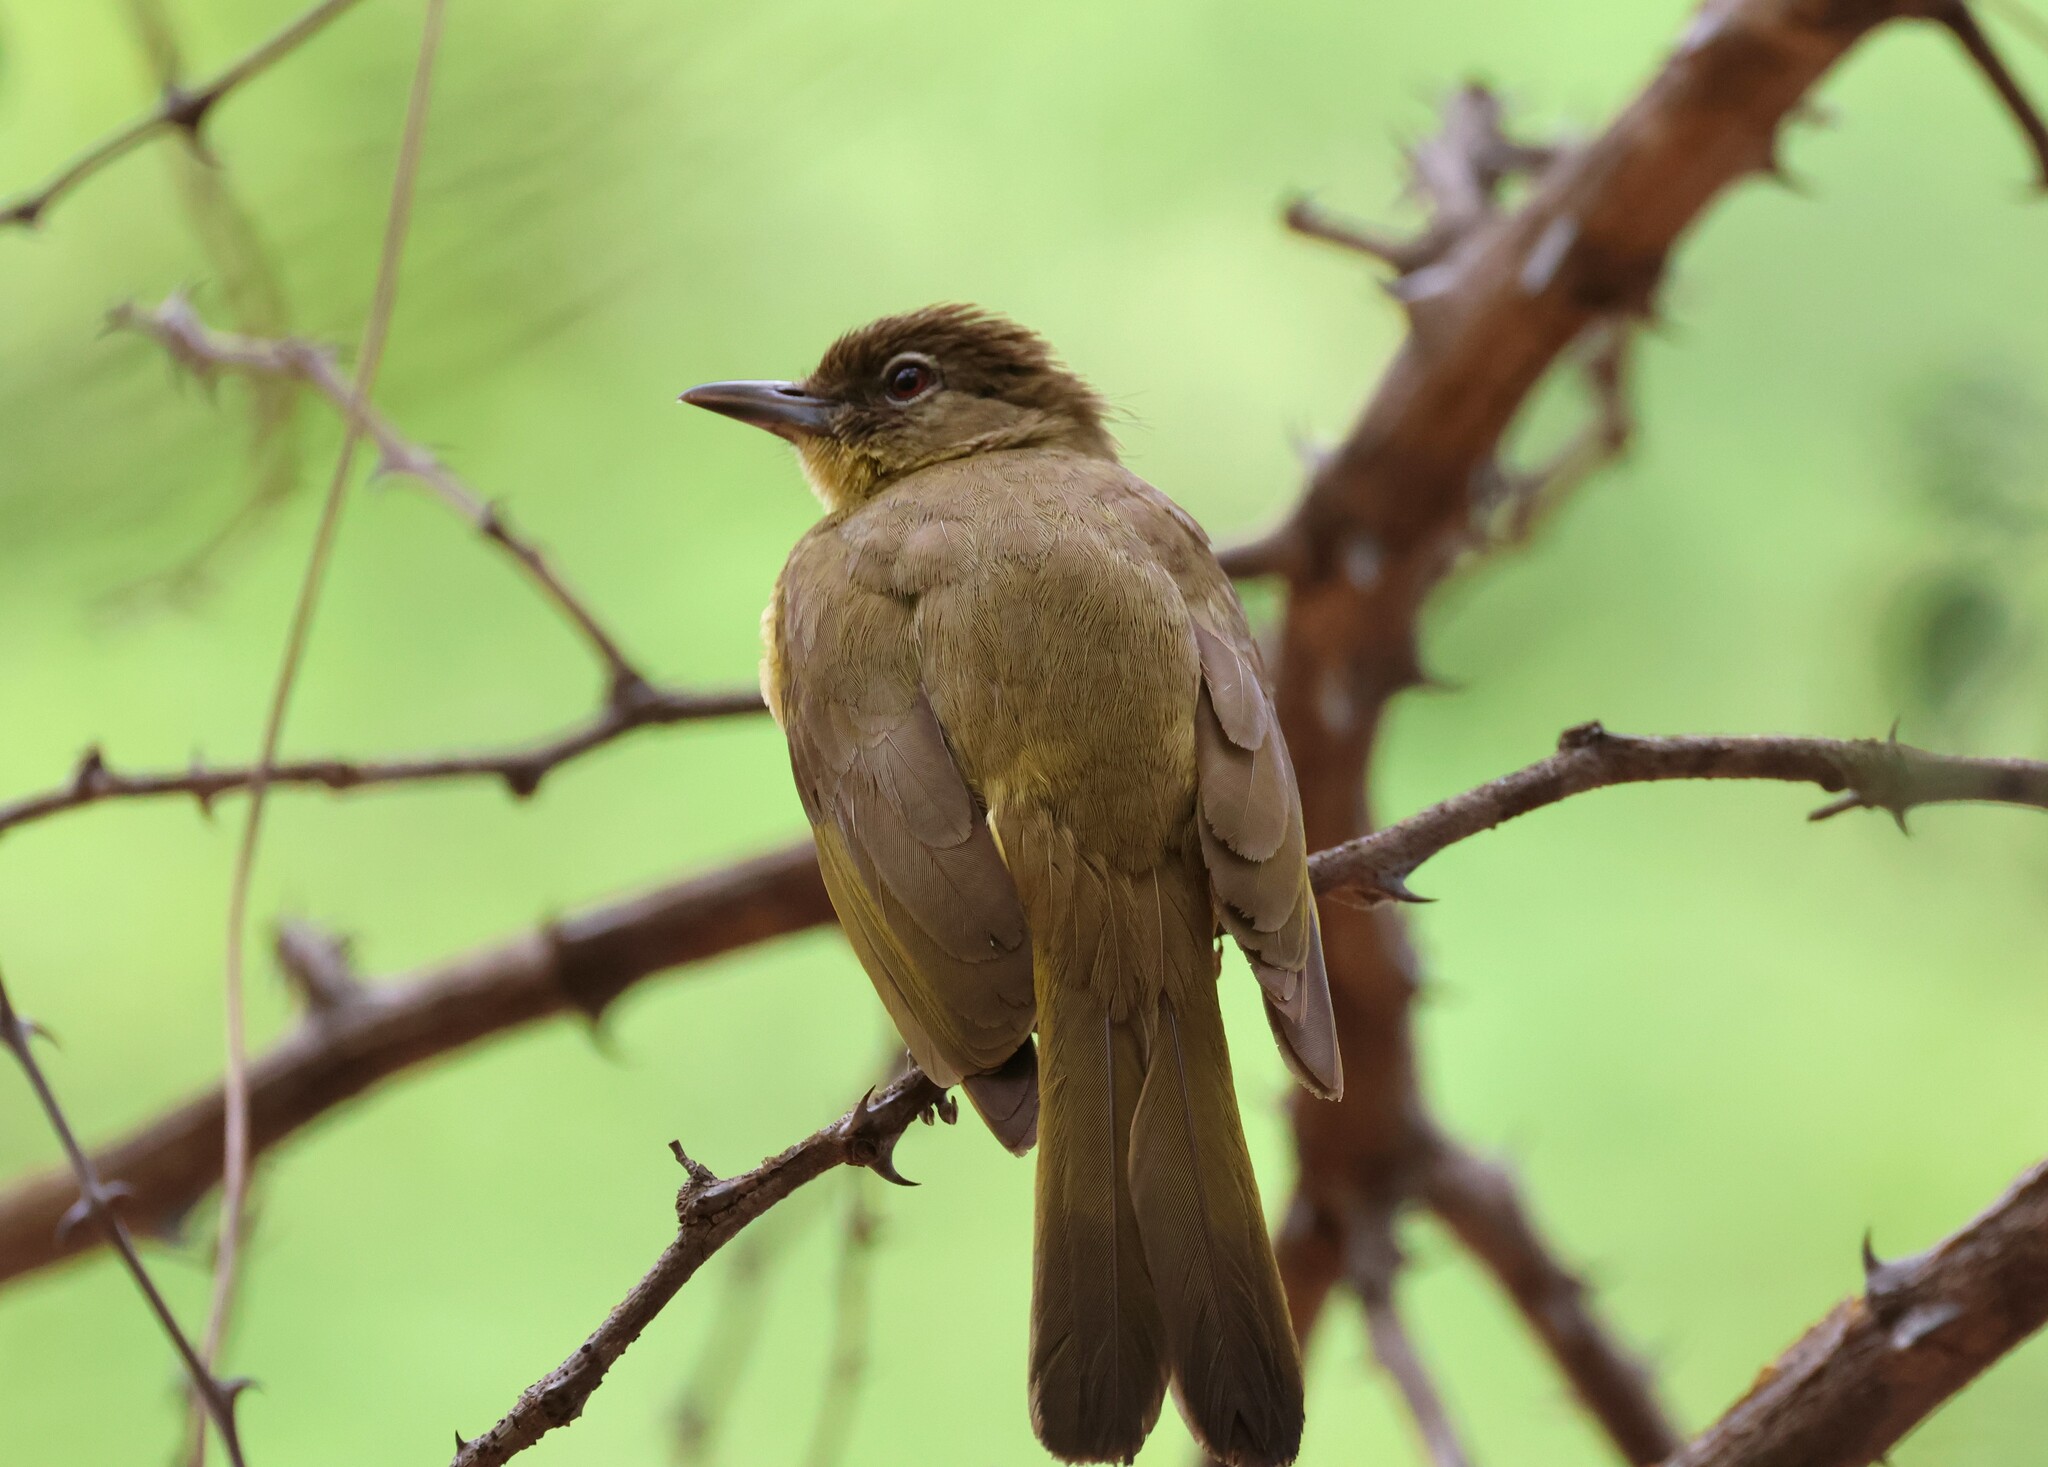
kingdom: Animalia
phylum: Chordata
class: Aves
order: Passeriformes
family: Pycnonotidae
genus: Chlorocichla
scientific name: Chlorocichla flaviventris
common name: Yellow-bellied greenbul
